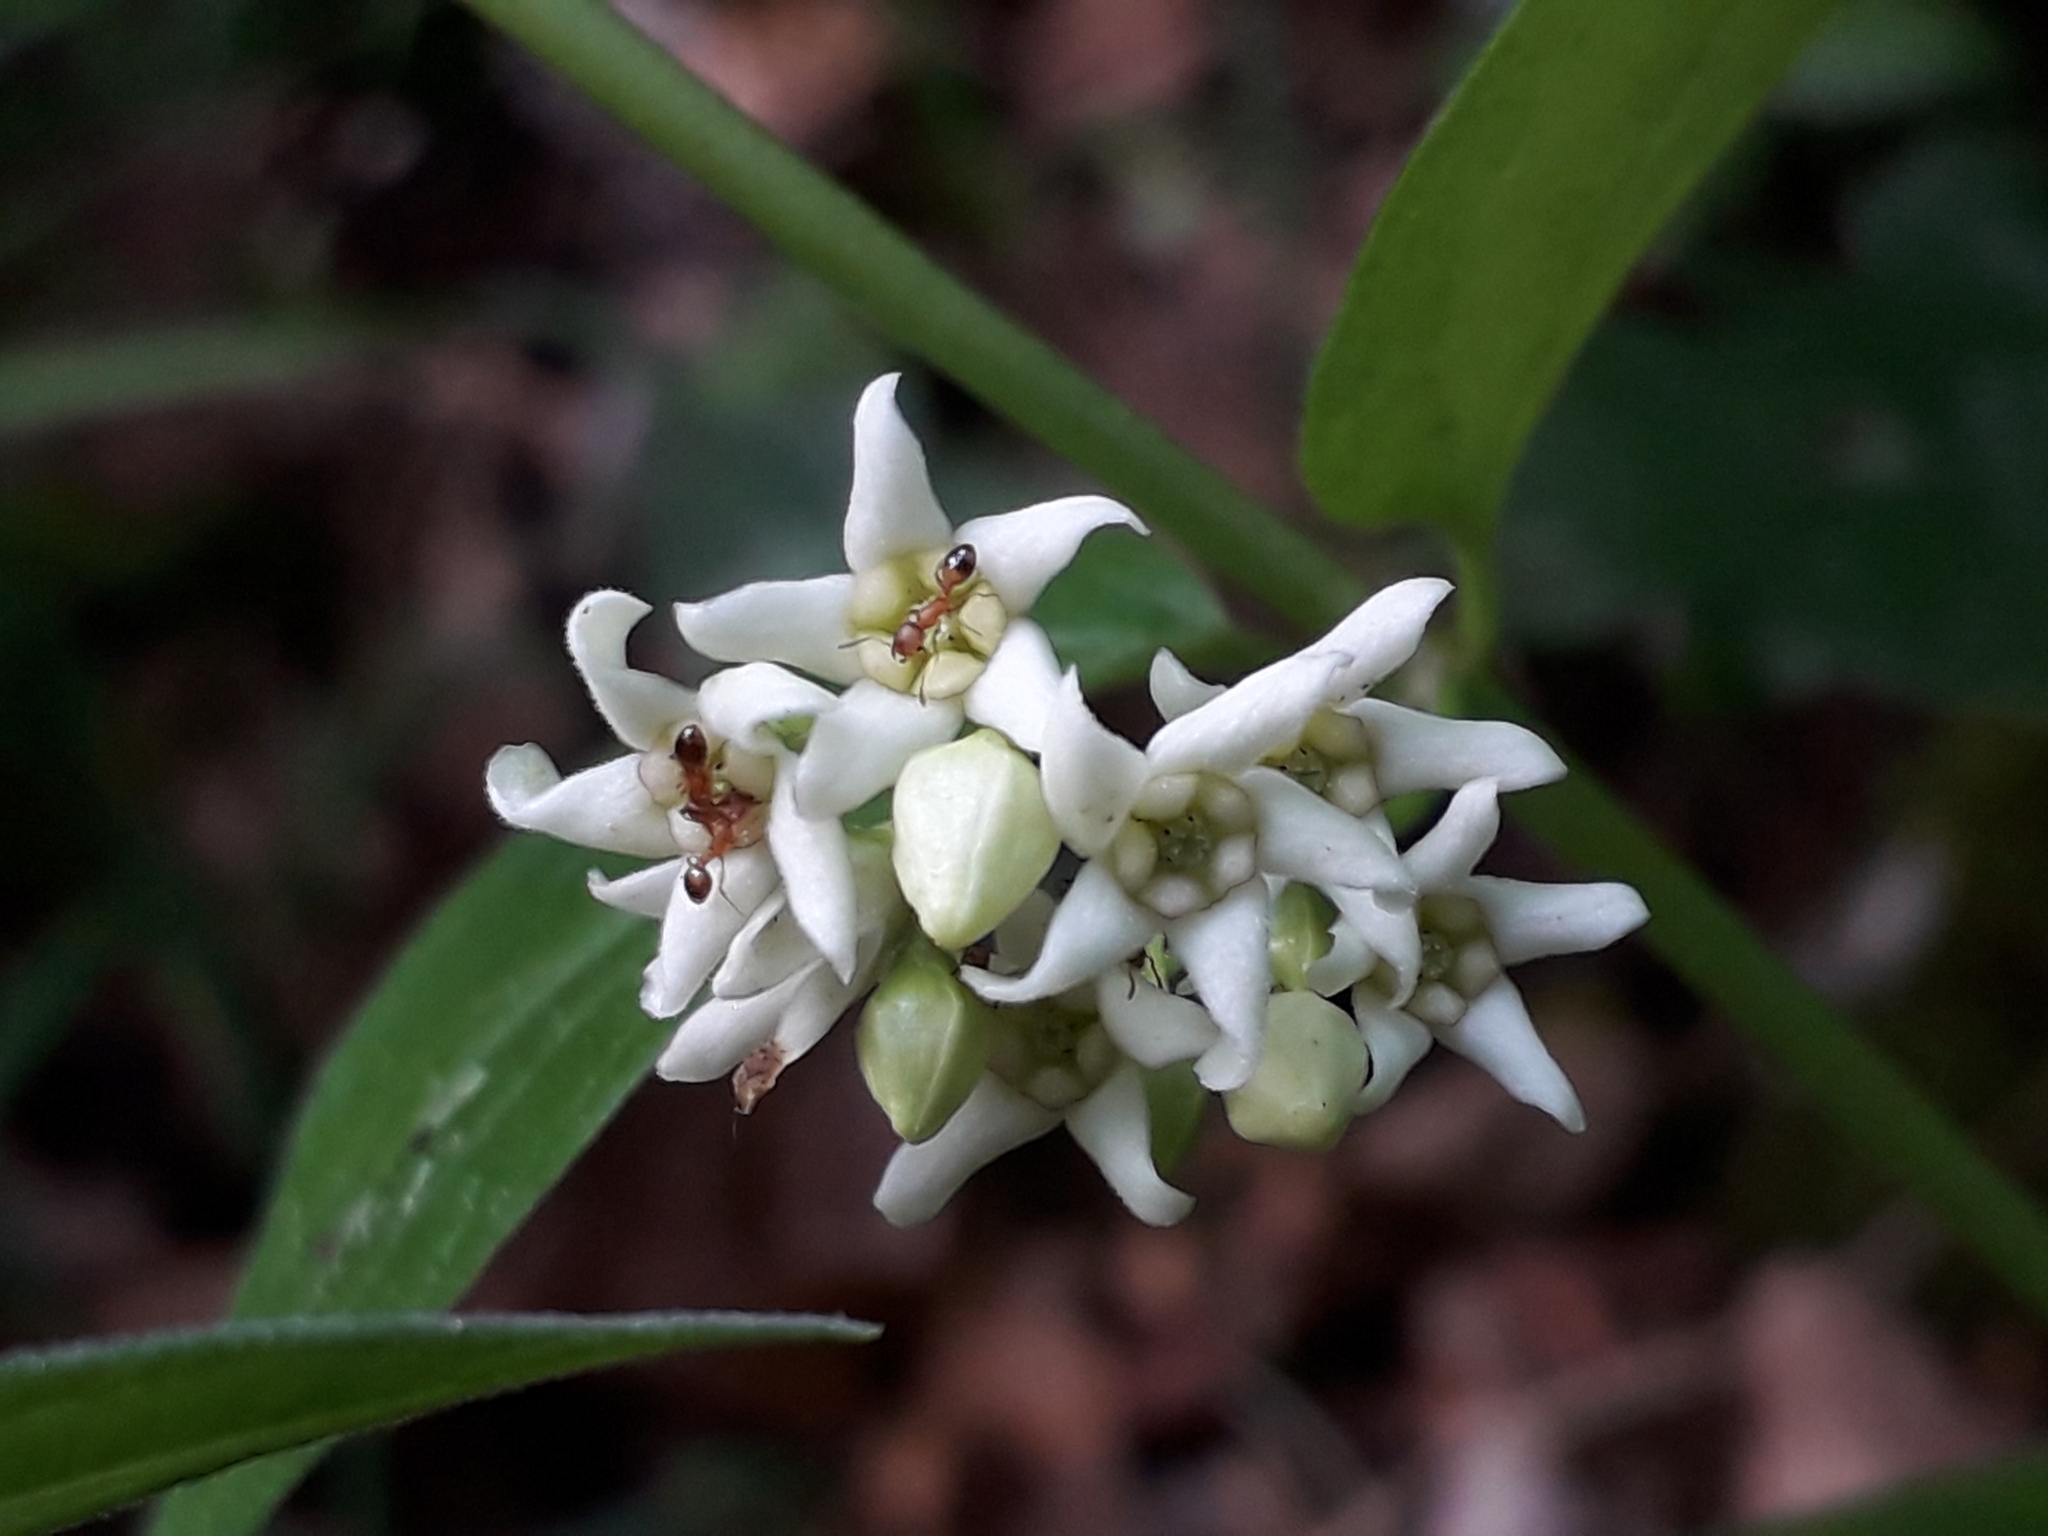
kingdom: Plantae
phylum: Tracheophyta
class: Magnoliopsida
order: Gentianales
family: Apocynaceae
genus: Vincetoxicum
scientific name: Vincetoxicum hirundinaria
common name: White swallowwort
